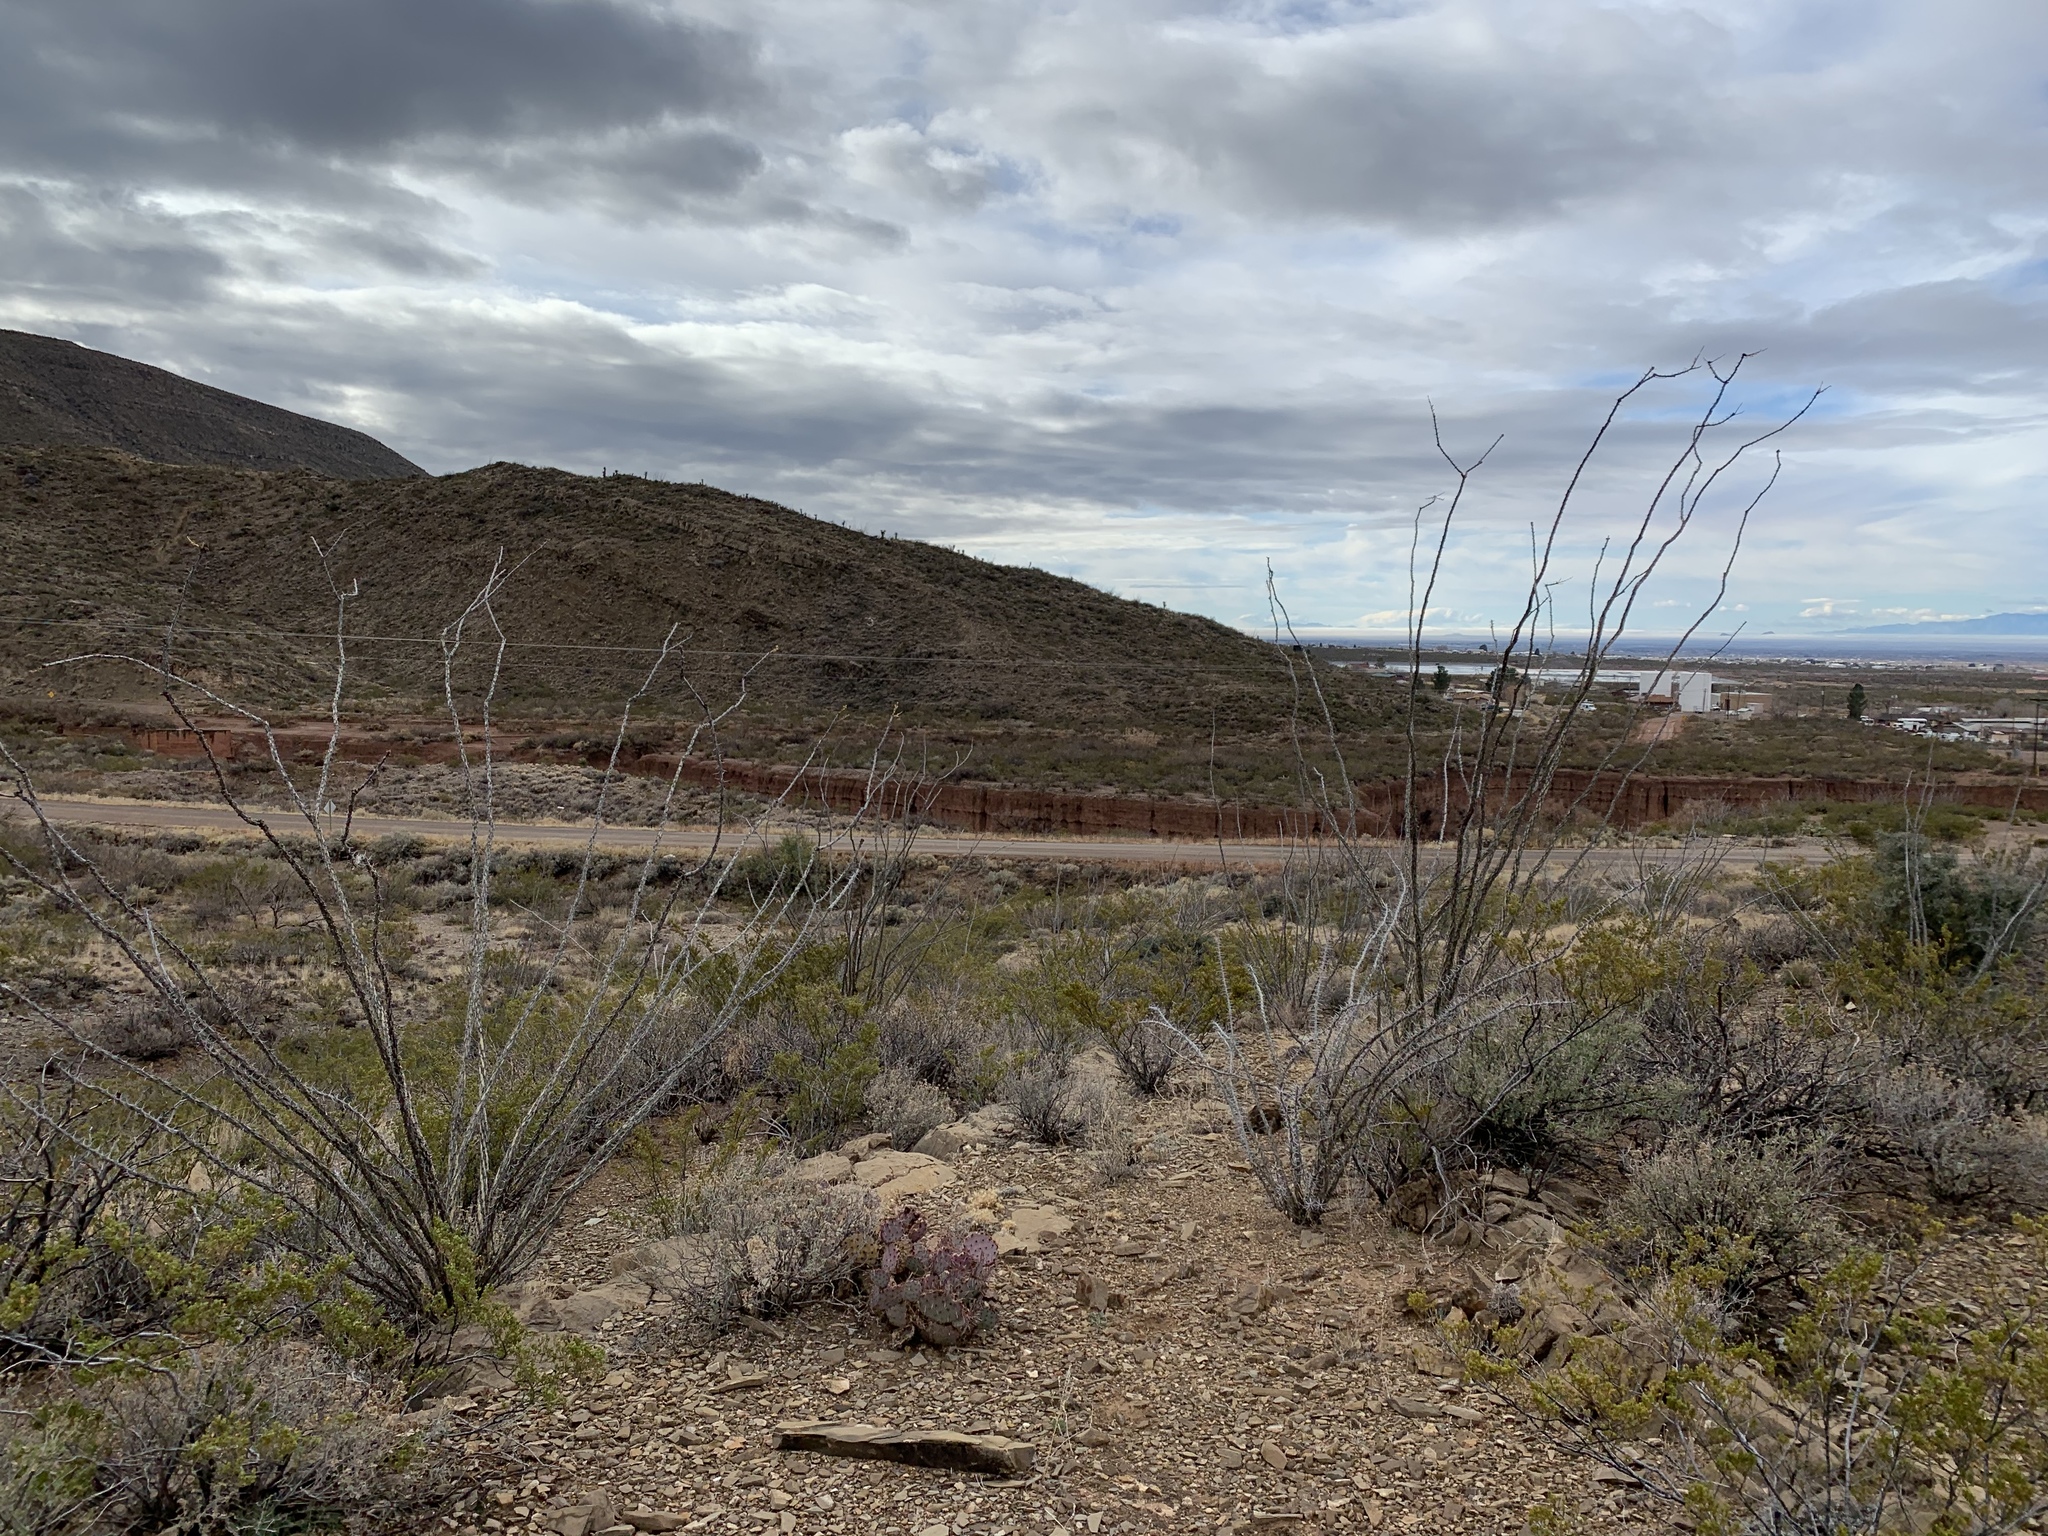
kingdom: Plantae
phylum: Tracheophyta
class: Magnoliopsida
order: Ericales
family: Fouquieriaceae
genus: Fouquieria
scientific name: Fouquieria splendens
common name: Vine-cactus
